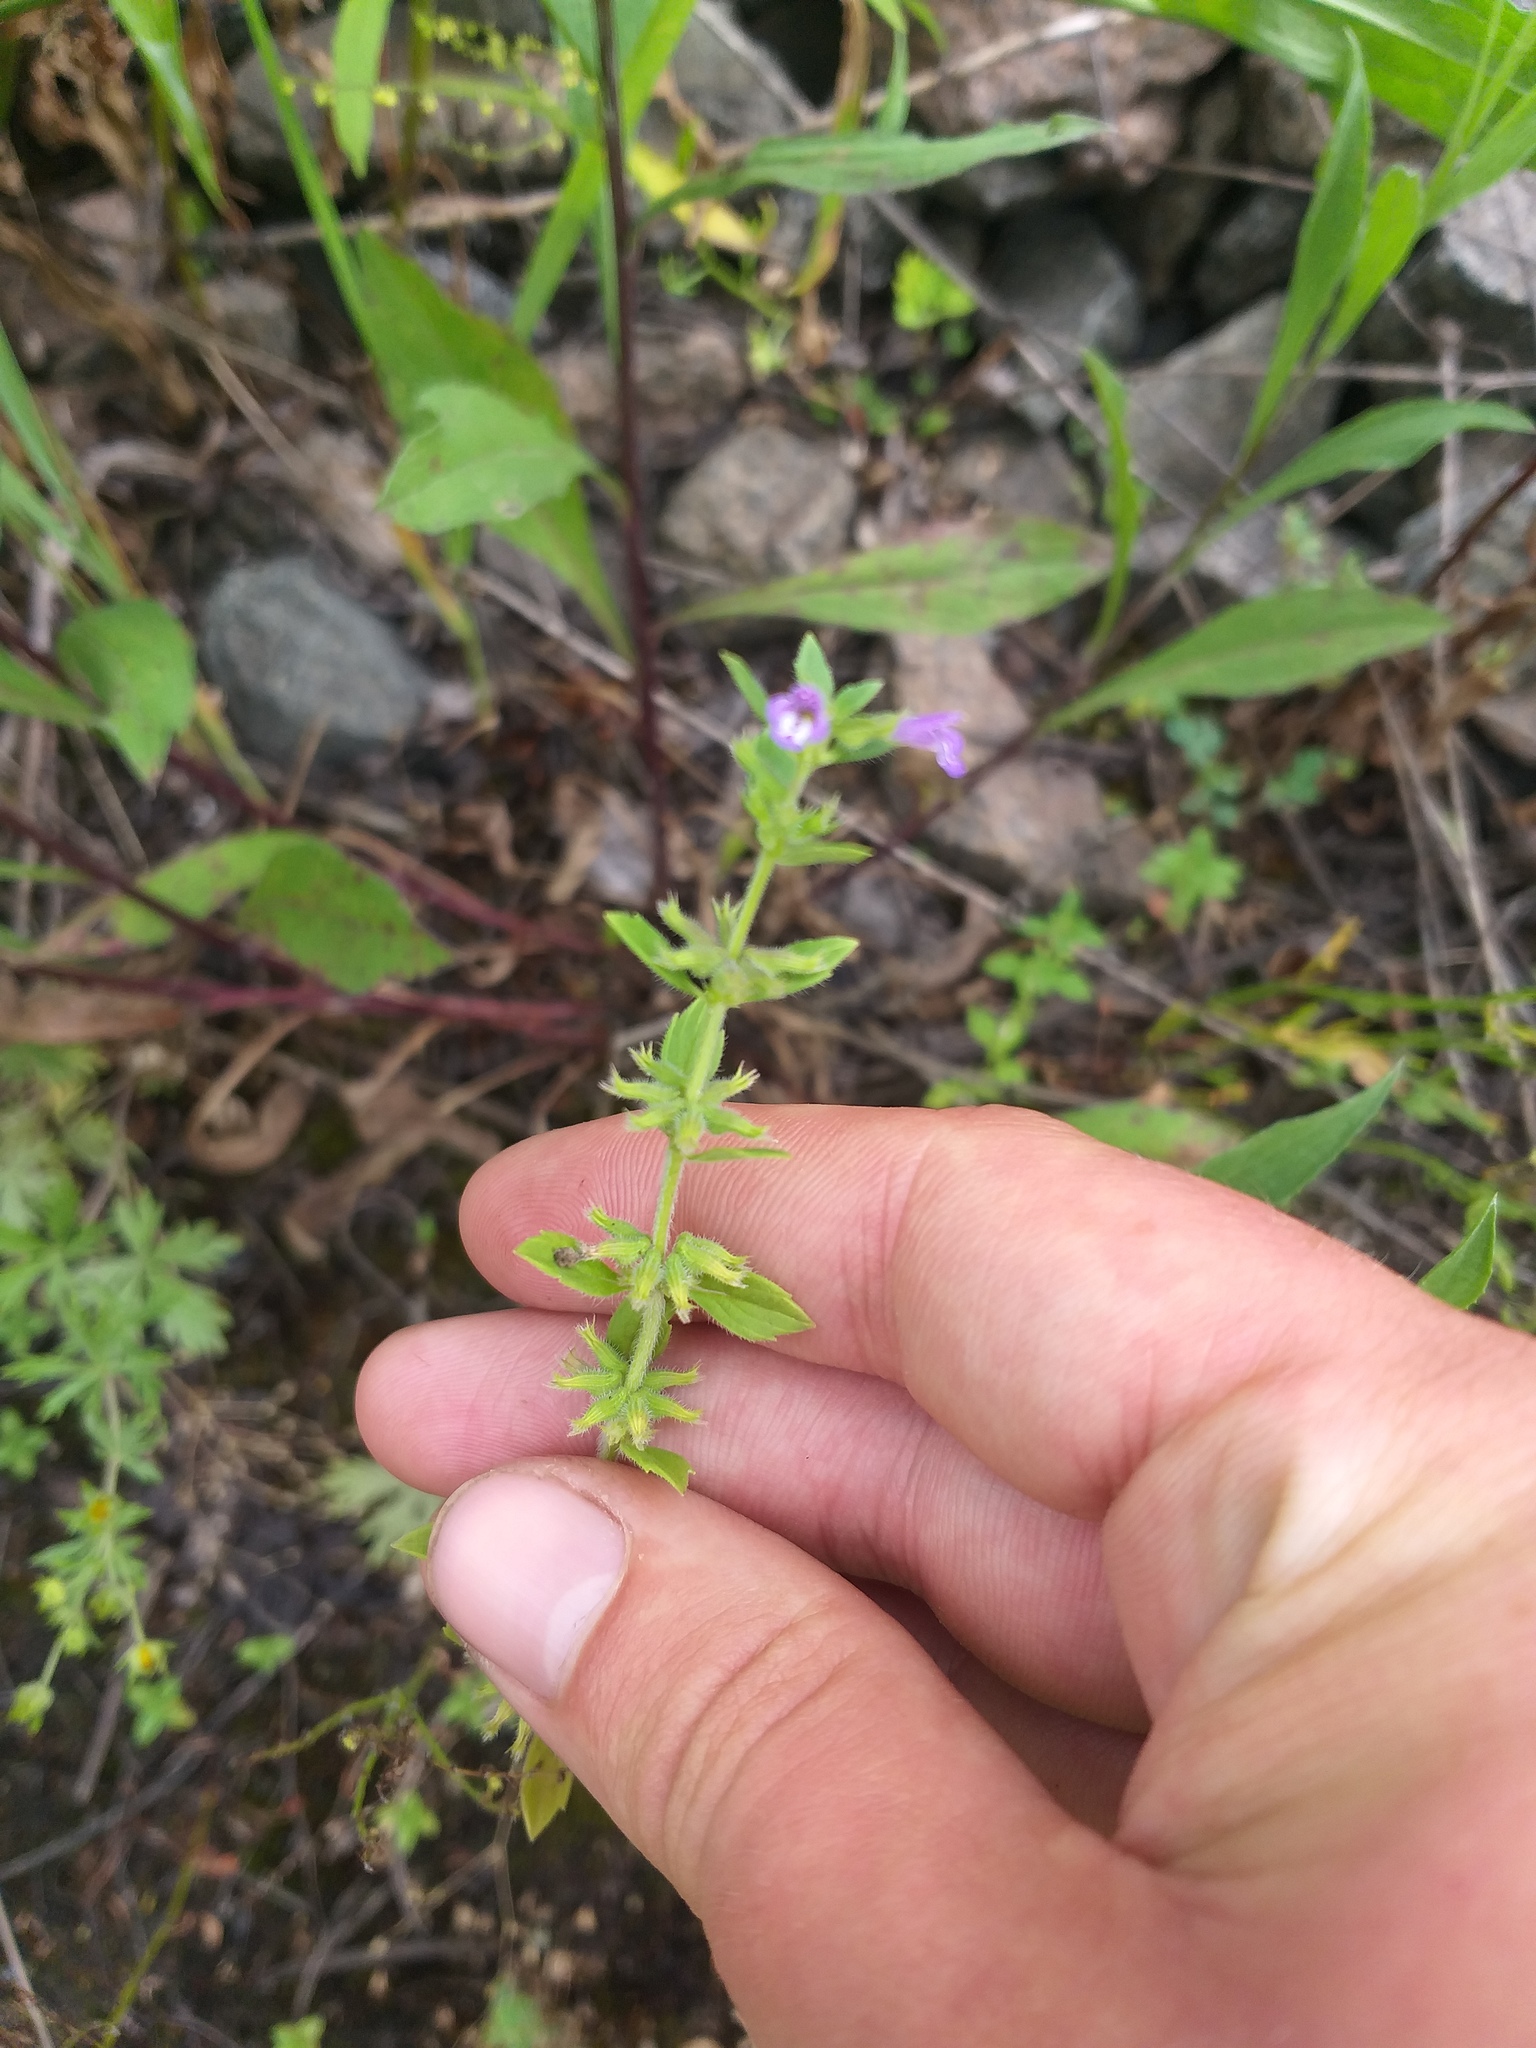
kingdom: Plantae
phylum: Tracheophyta
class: Magnoliopsida
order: Lamiales
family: Lamiaceae
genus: Clinopodium
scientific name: Clinopodium acinos
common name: Basil thyme
